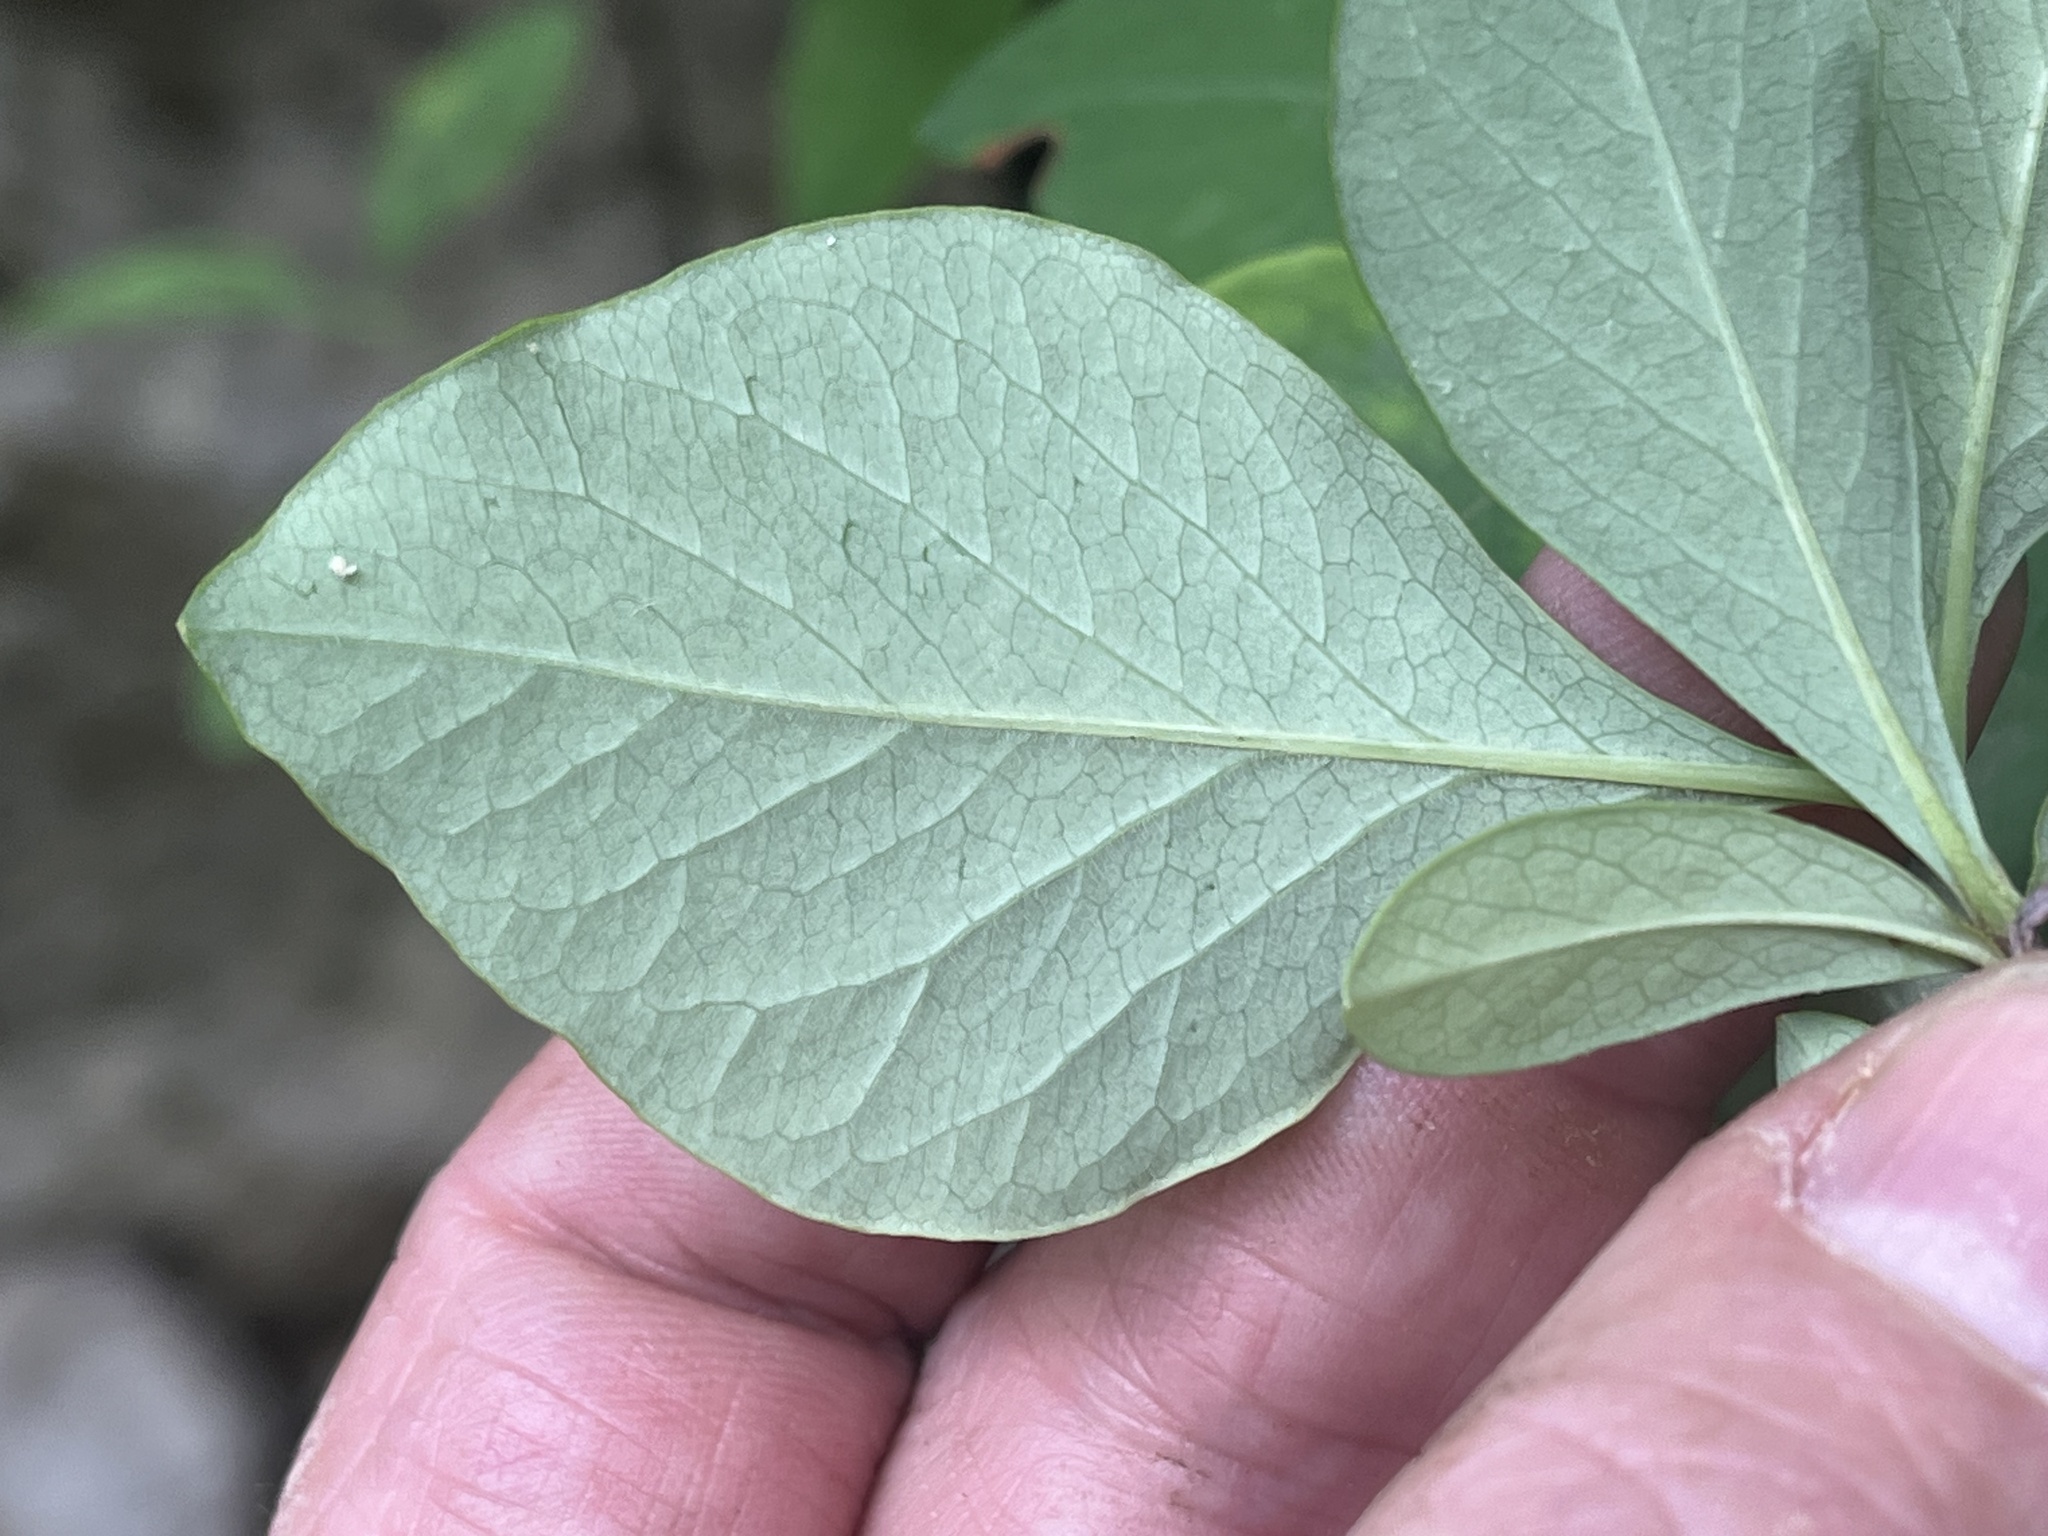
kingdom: Plantae
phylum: Tracheophyta
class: Magnoliopsida
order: Dipsacales
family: Caprifoliaceae
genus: Lonicera
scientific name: Lonicera dioica
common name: Limber honeysuckle
